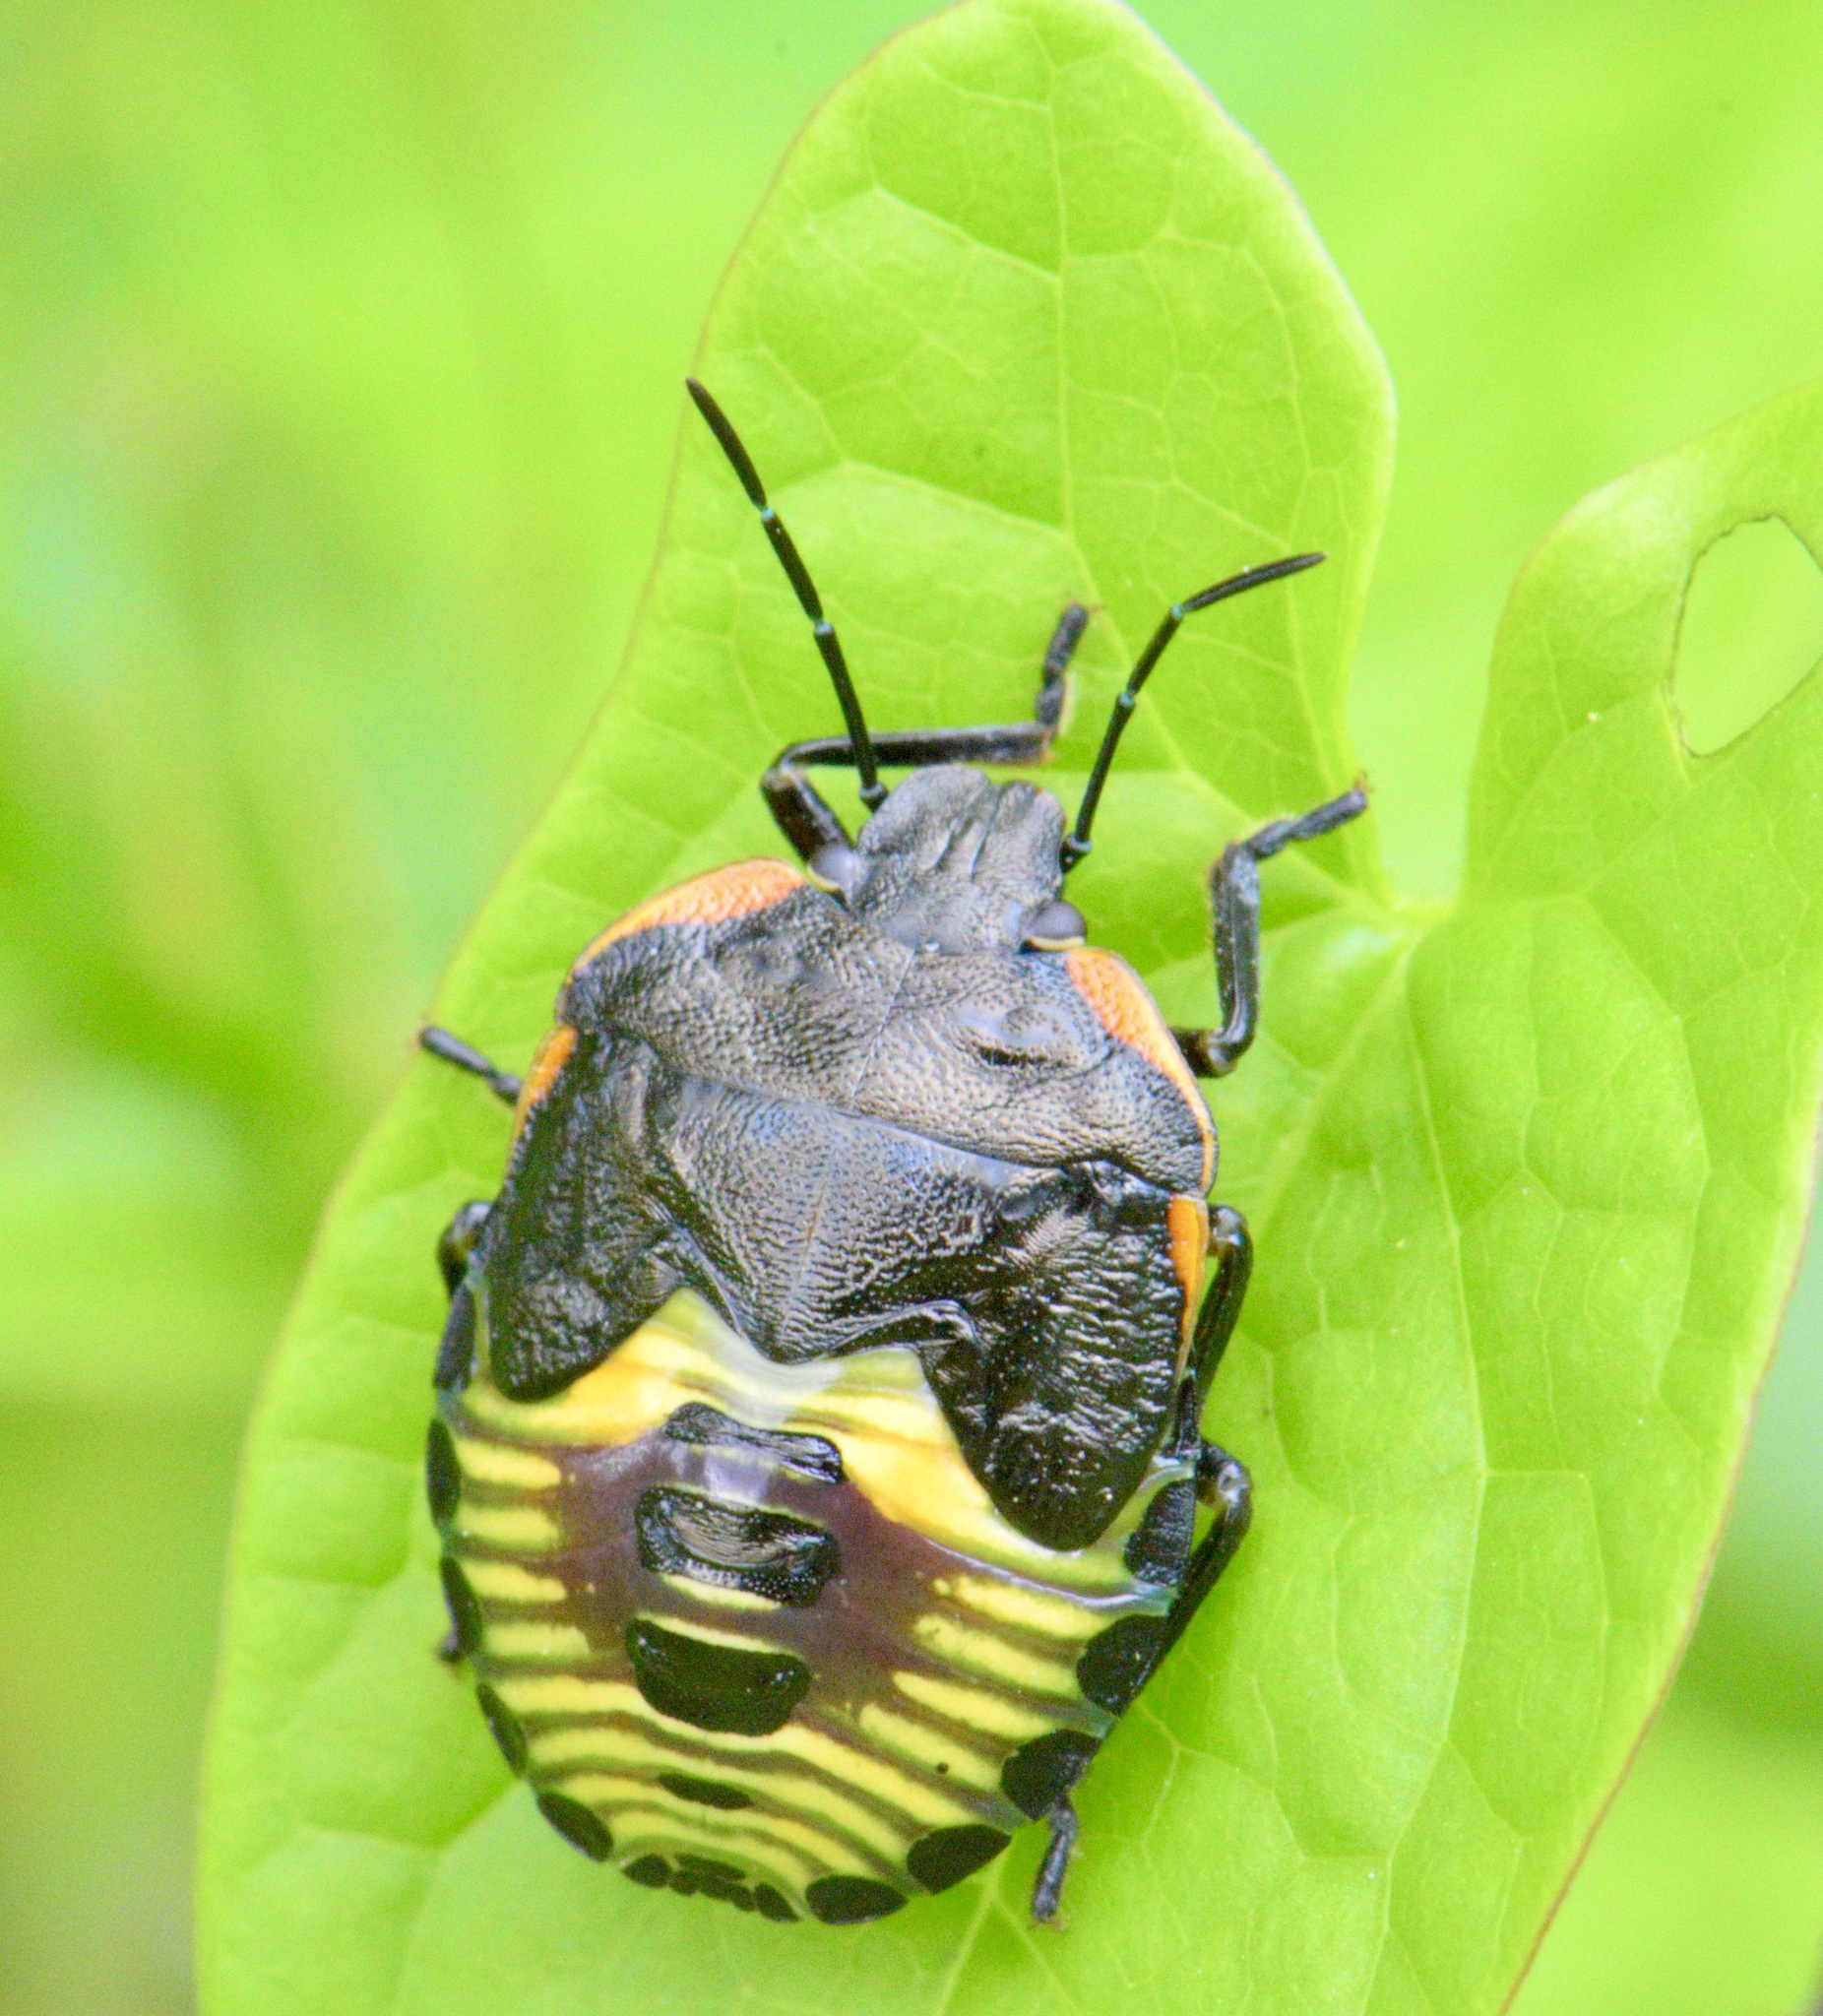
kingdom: Animalia
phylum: Arthropoda
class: Insecta
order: Hemiptera
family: Pentatomidae
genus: Chinavia
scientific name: Chinavia hilaris
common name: Green stink bug
